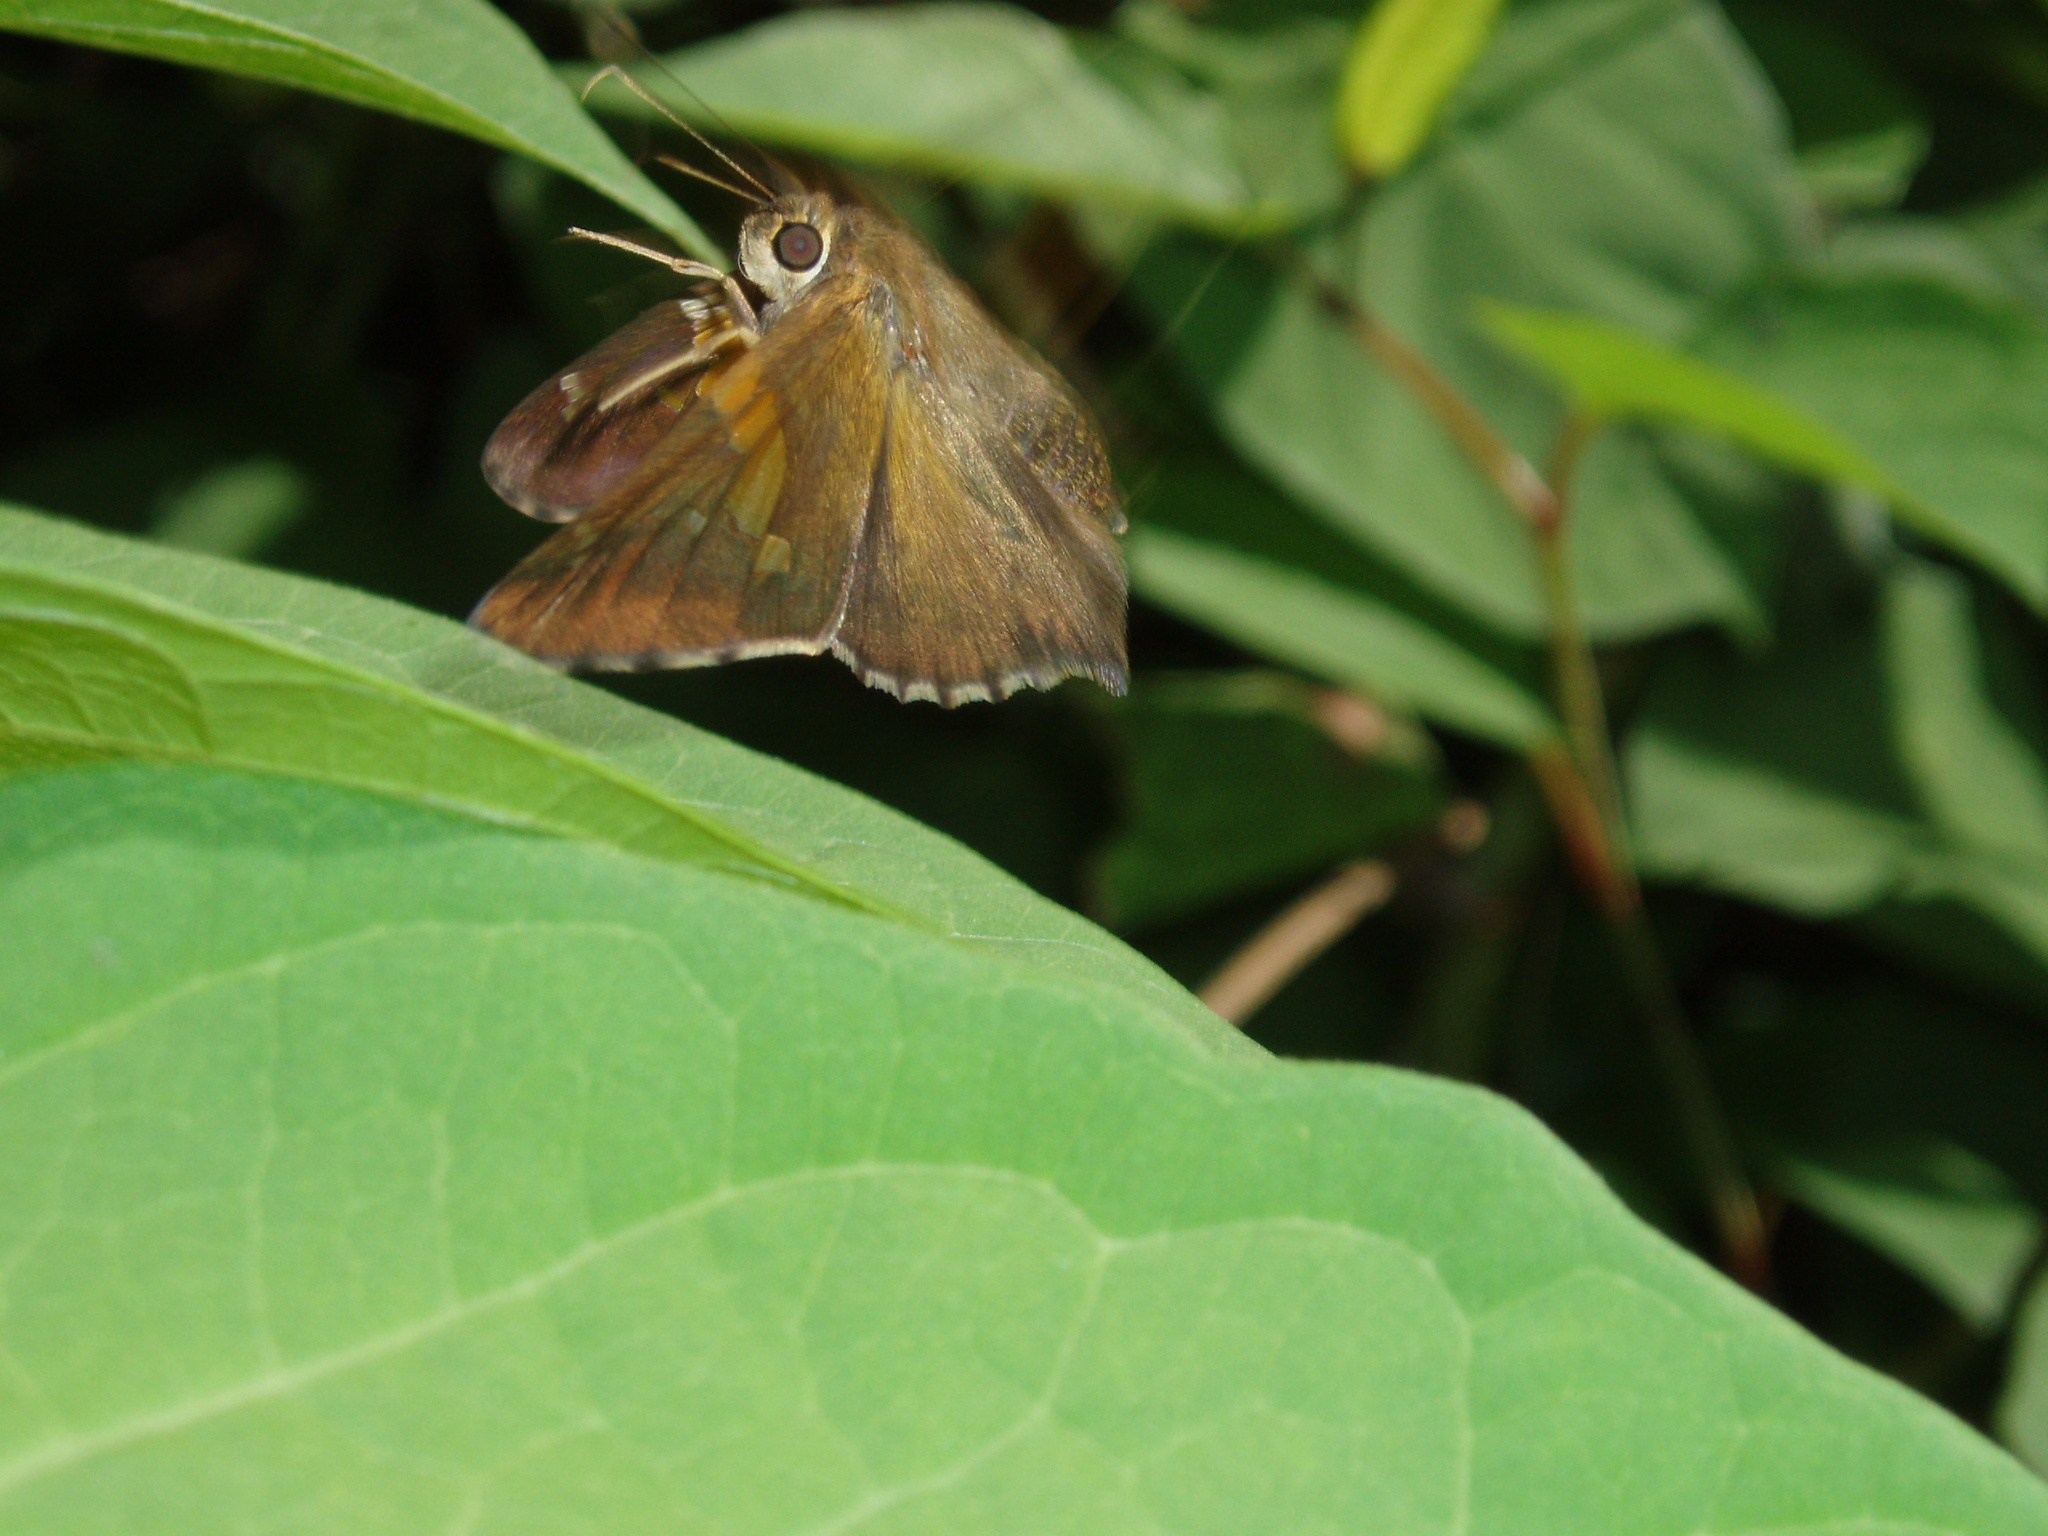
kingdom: Animalia
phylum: Arthropoda
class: Insecta
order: Lepidoptera
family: Hesperiidae
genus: Epargyreus
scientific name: Epargyreus clarus
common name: Silver-spotted skipper
